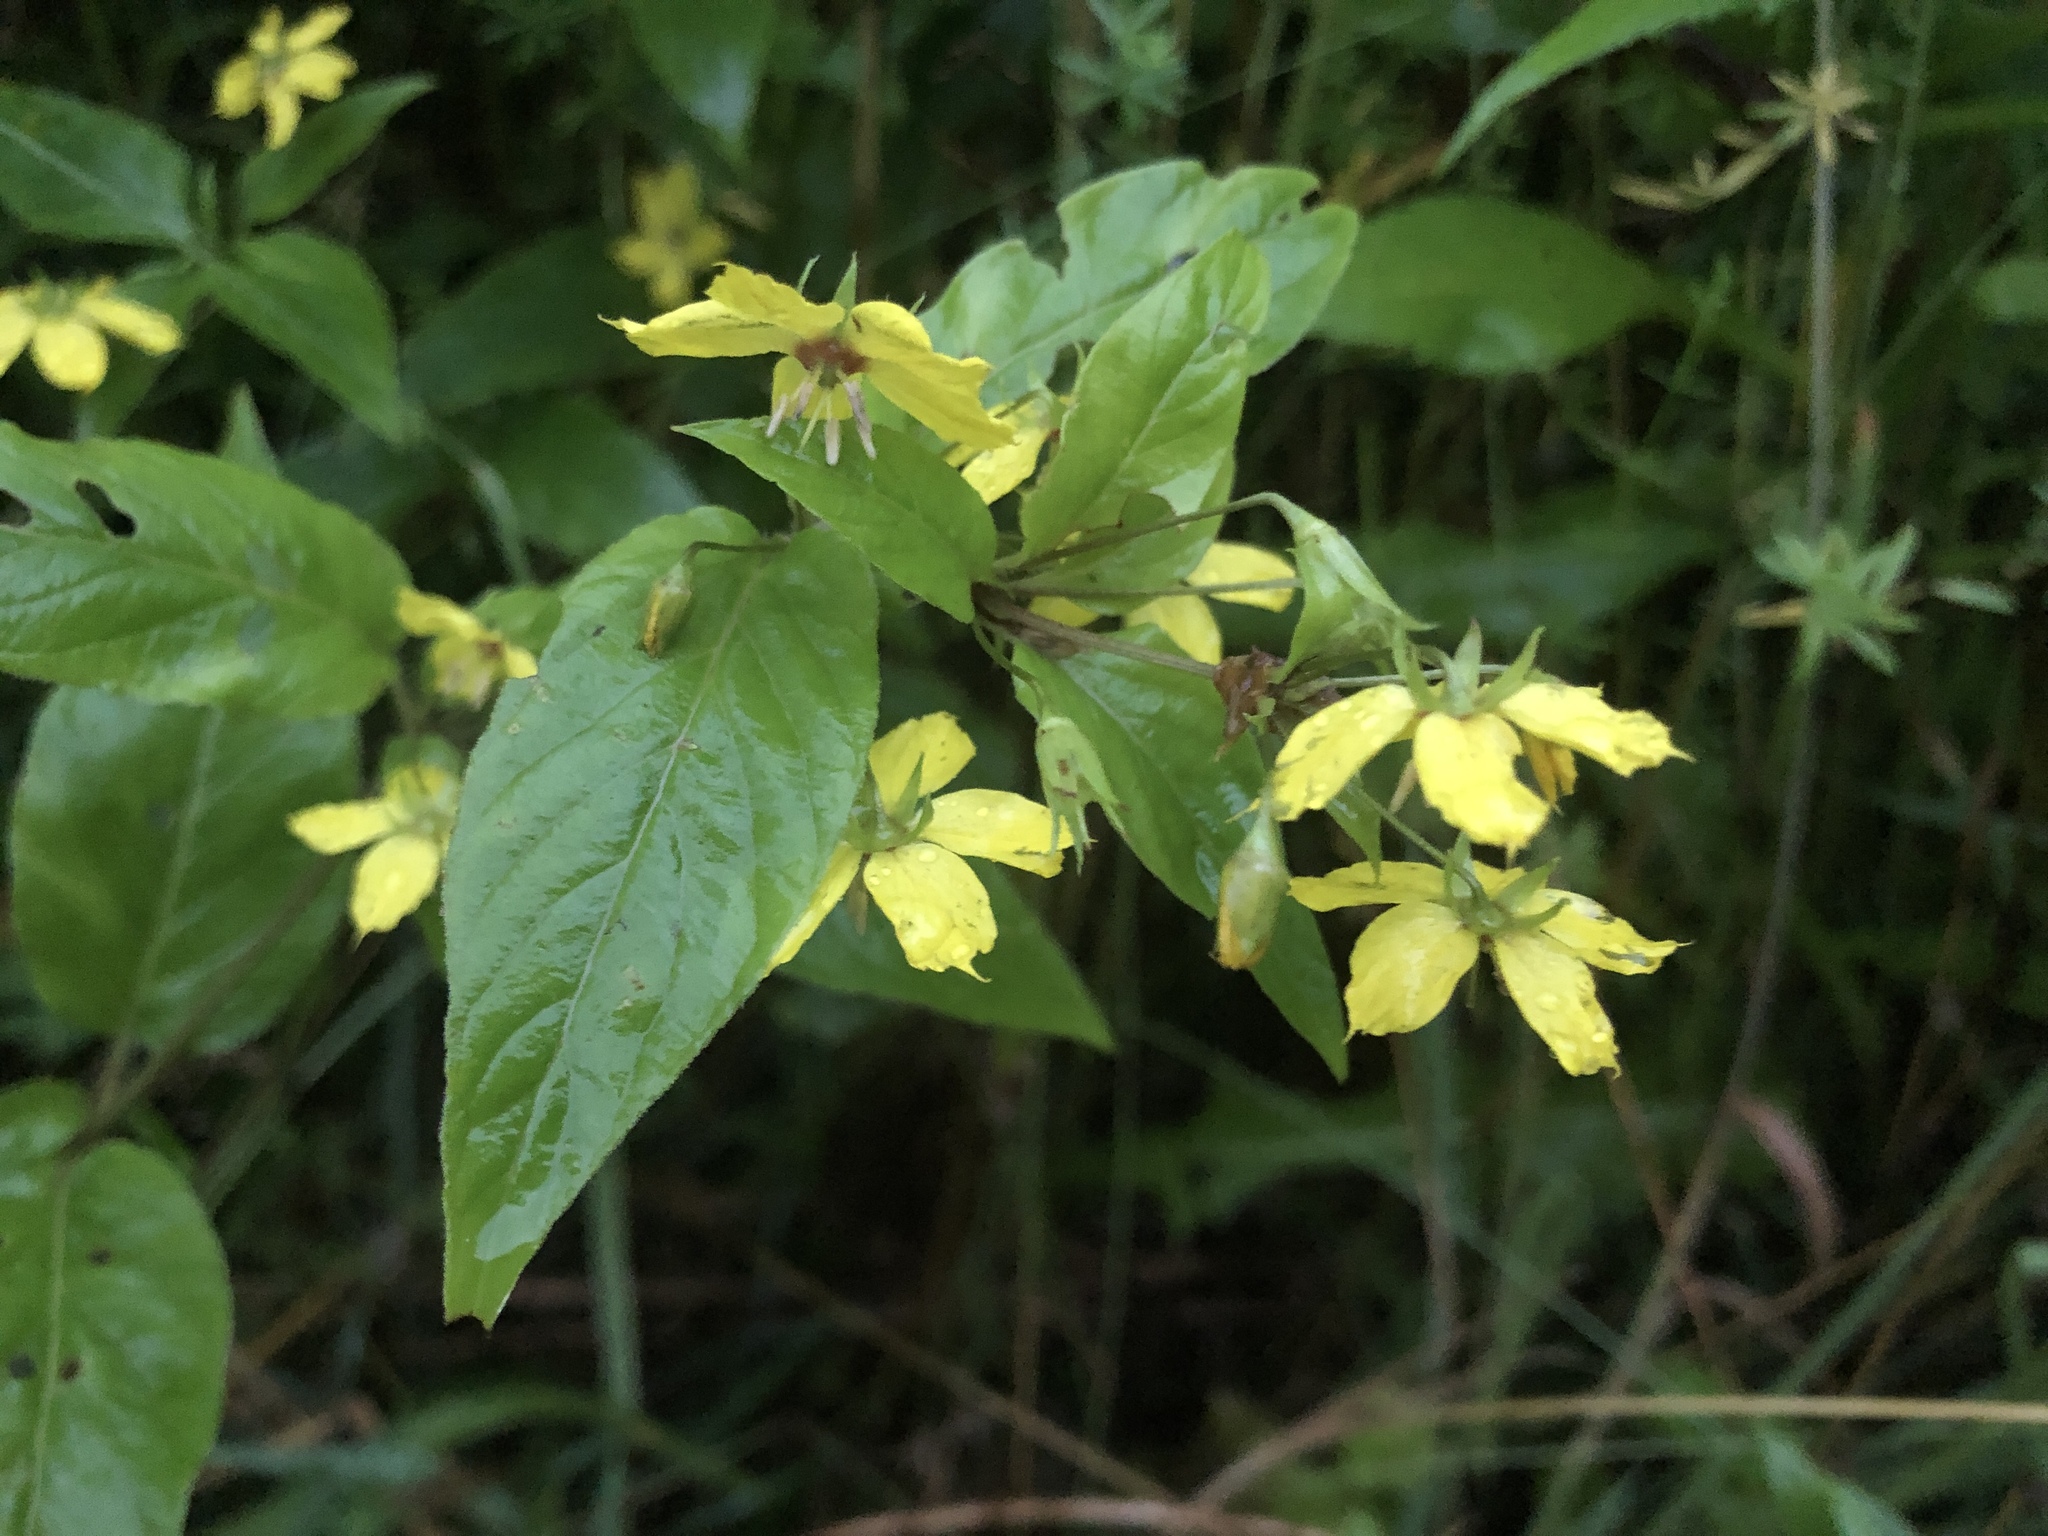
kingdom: Plantae
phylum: Tracheophyta
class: Magnoliopsida
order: Ericales
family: Primulaceae
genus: Lysimachia
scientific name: Lysimachia ciliata
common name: Fringed loosestrife
